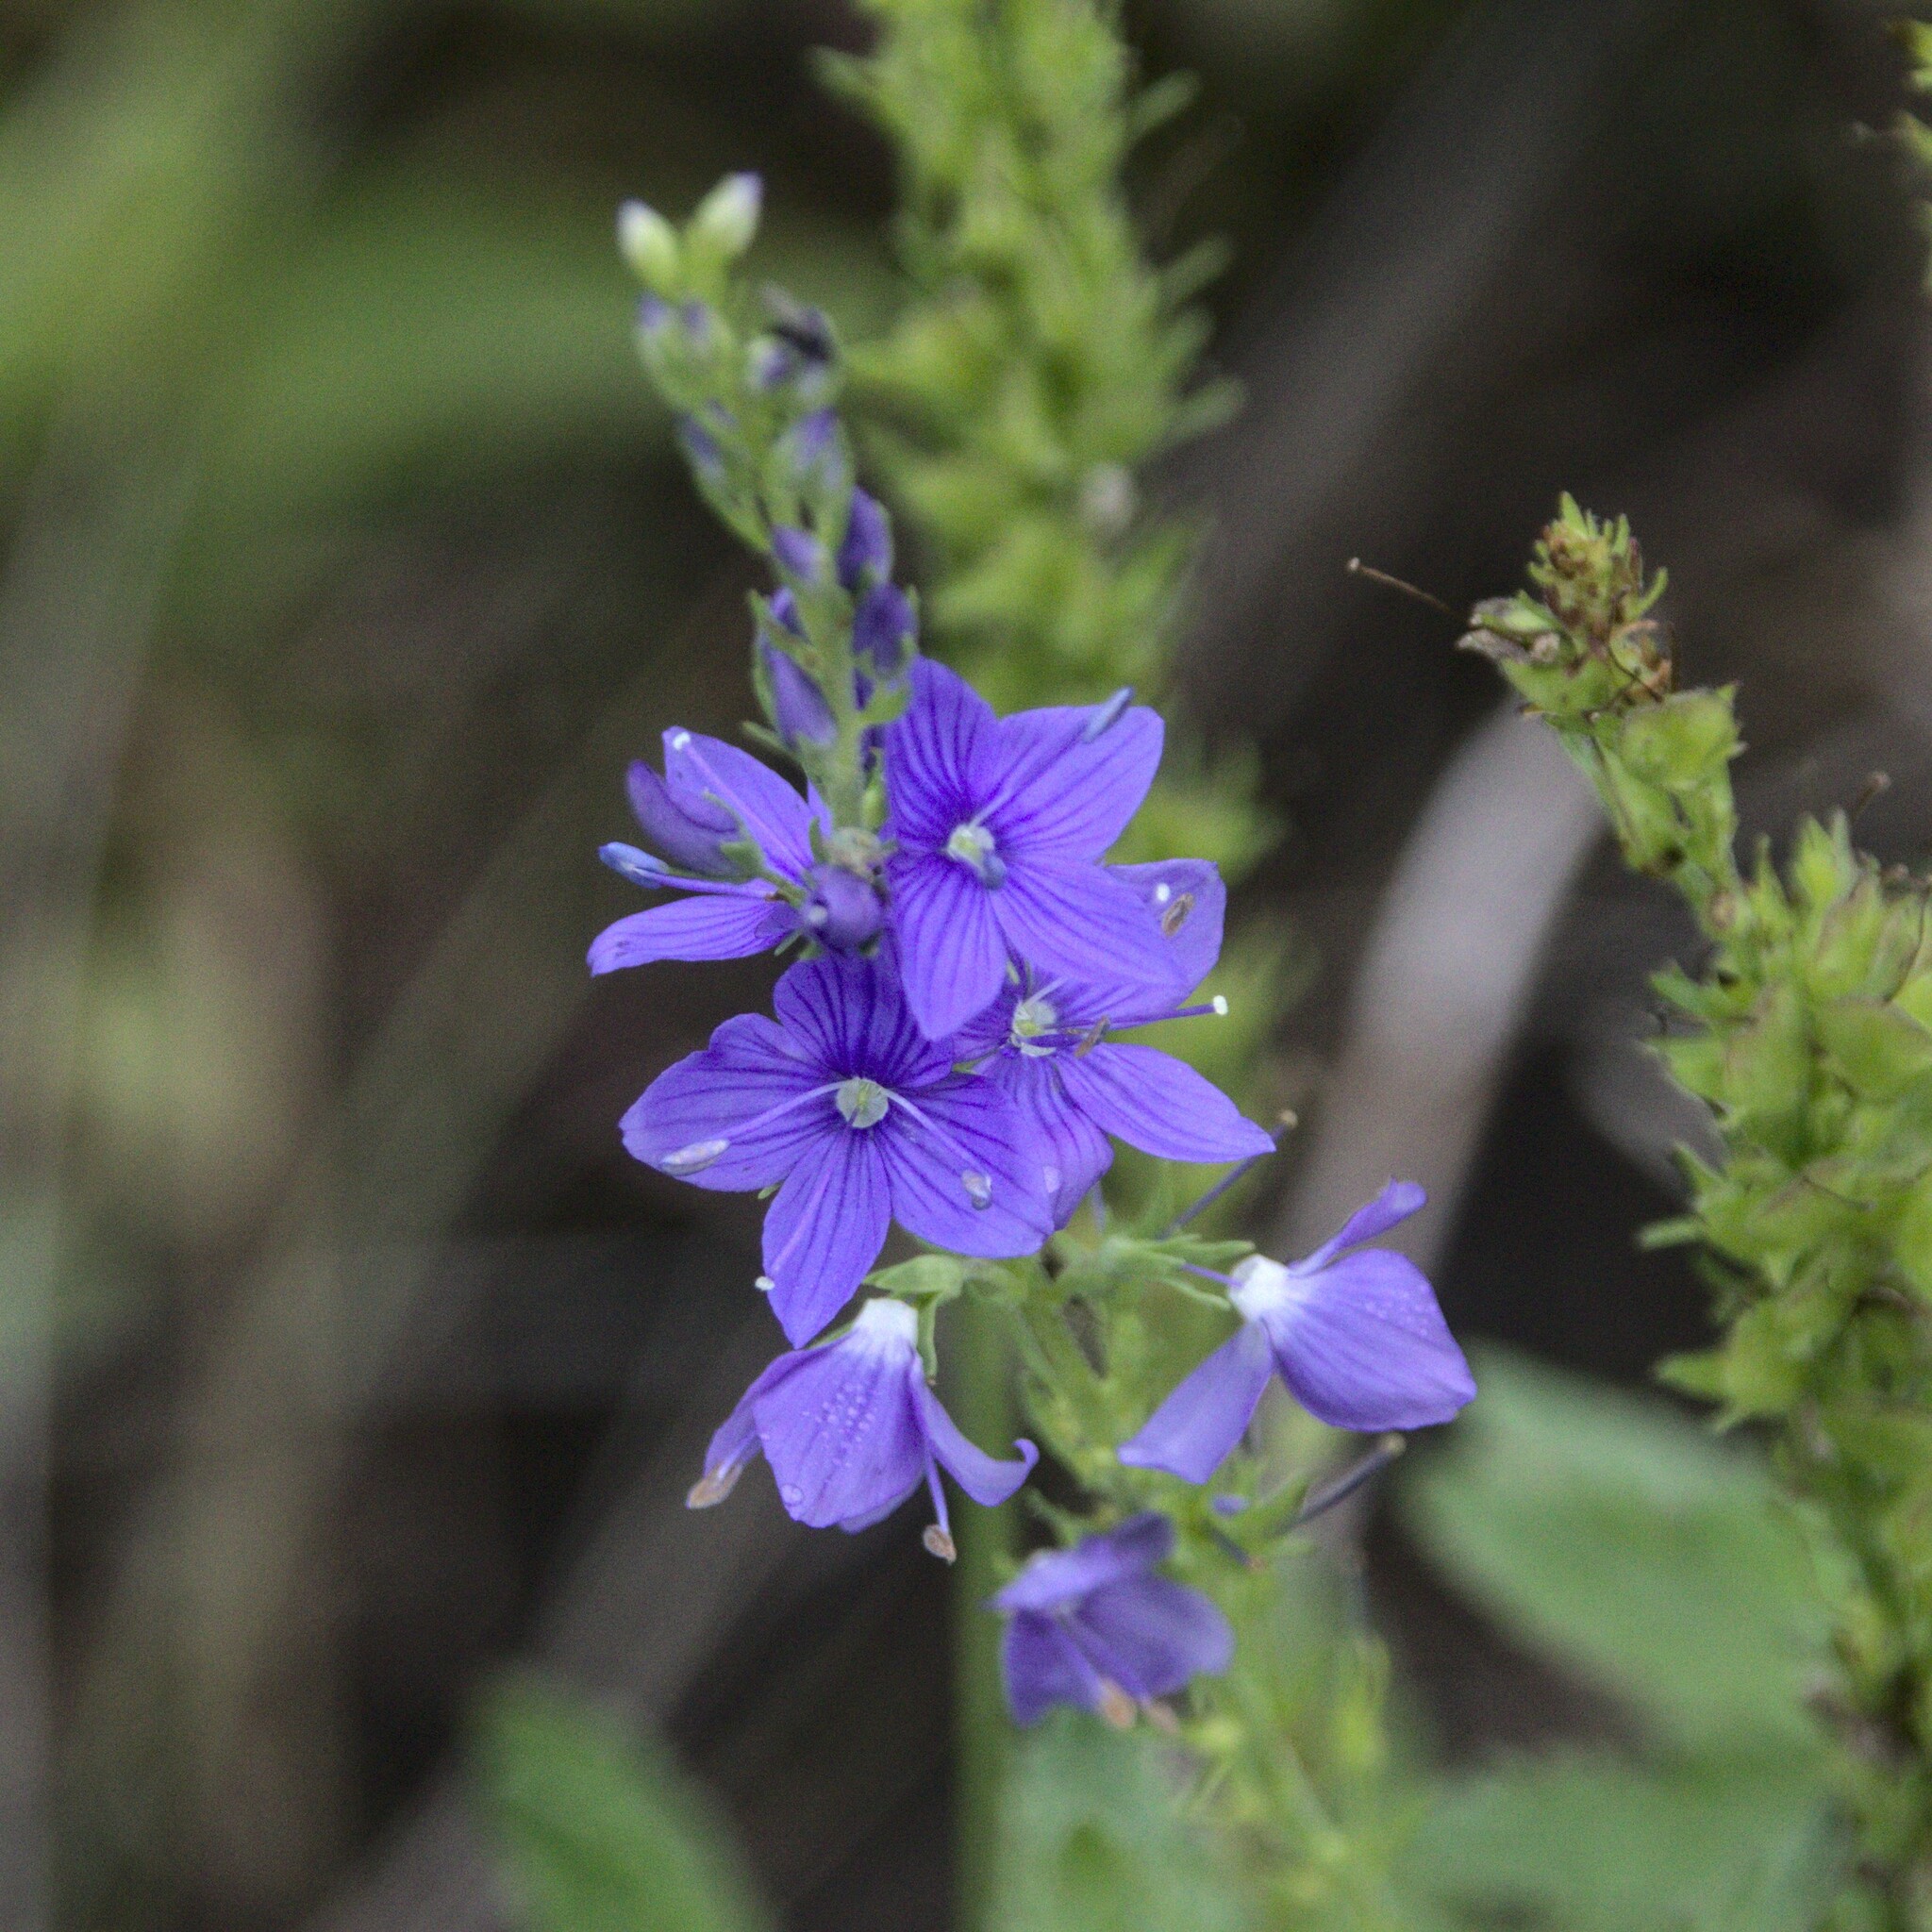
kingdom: Plantae
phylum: Tracheophyta
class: Magnoliopsida
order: Lamiales
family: Plantaginaceae
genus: Veronica
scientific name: Veronica teucrium
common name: Large speedwell
